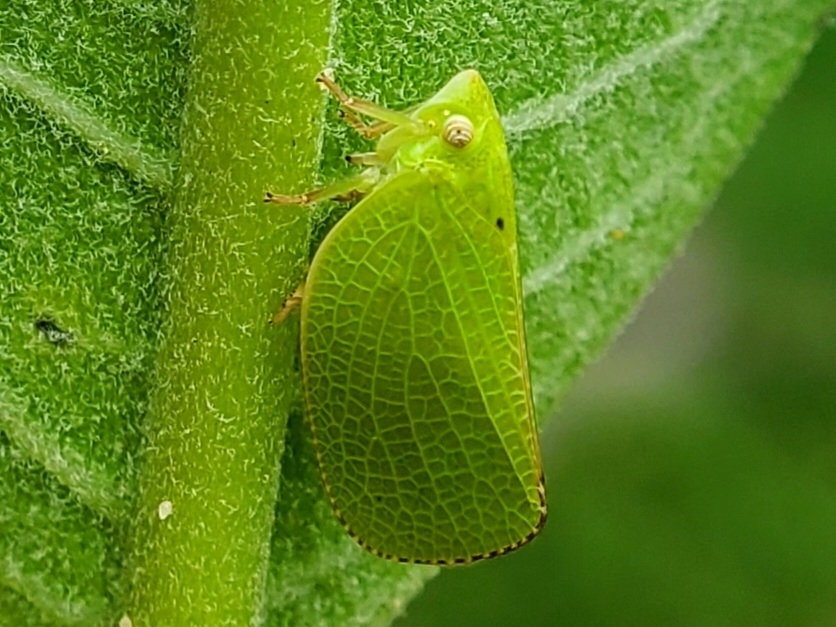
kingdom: Animalia
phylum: Arthropoda
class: Insecta
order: Hemiptera
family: Acanaloniidae
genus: Acanalonia
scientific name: Acanalonia conica
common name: Green cone-headed planthopper
